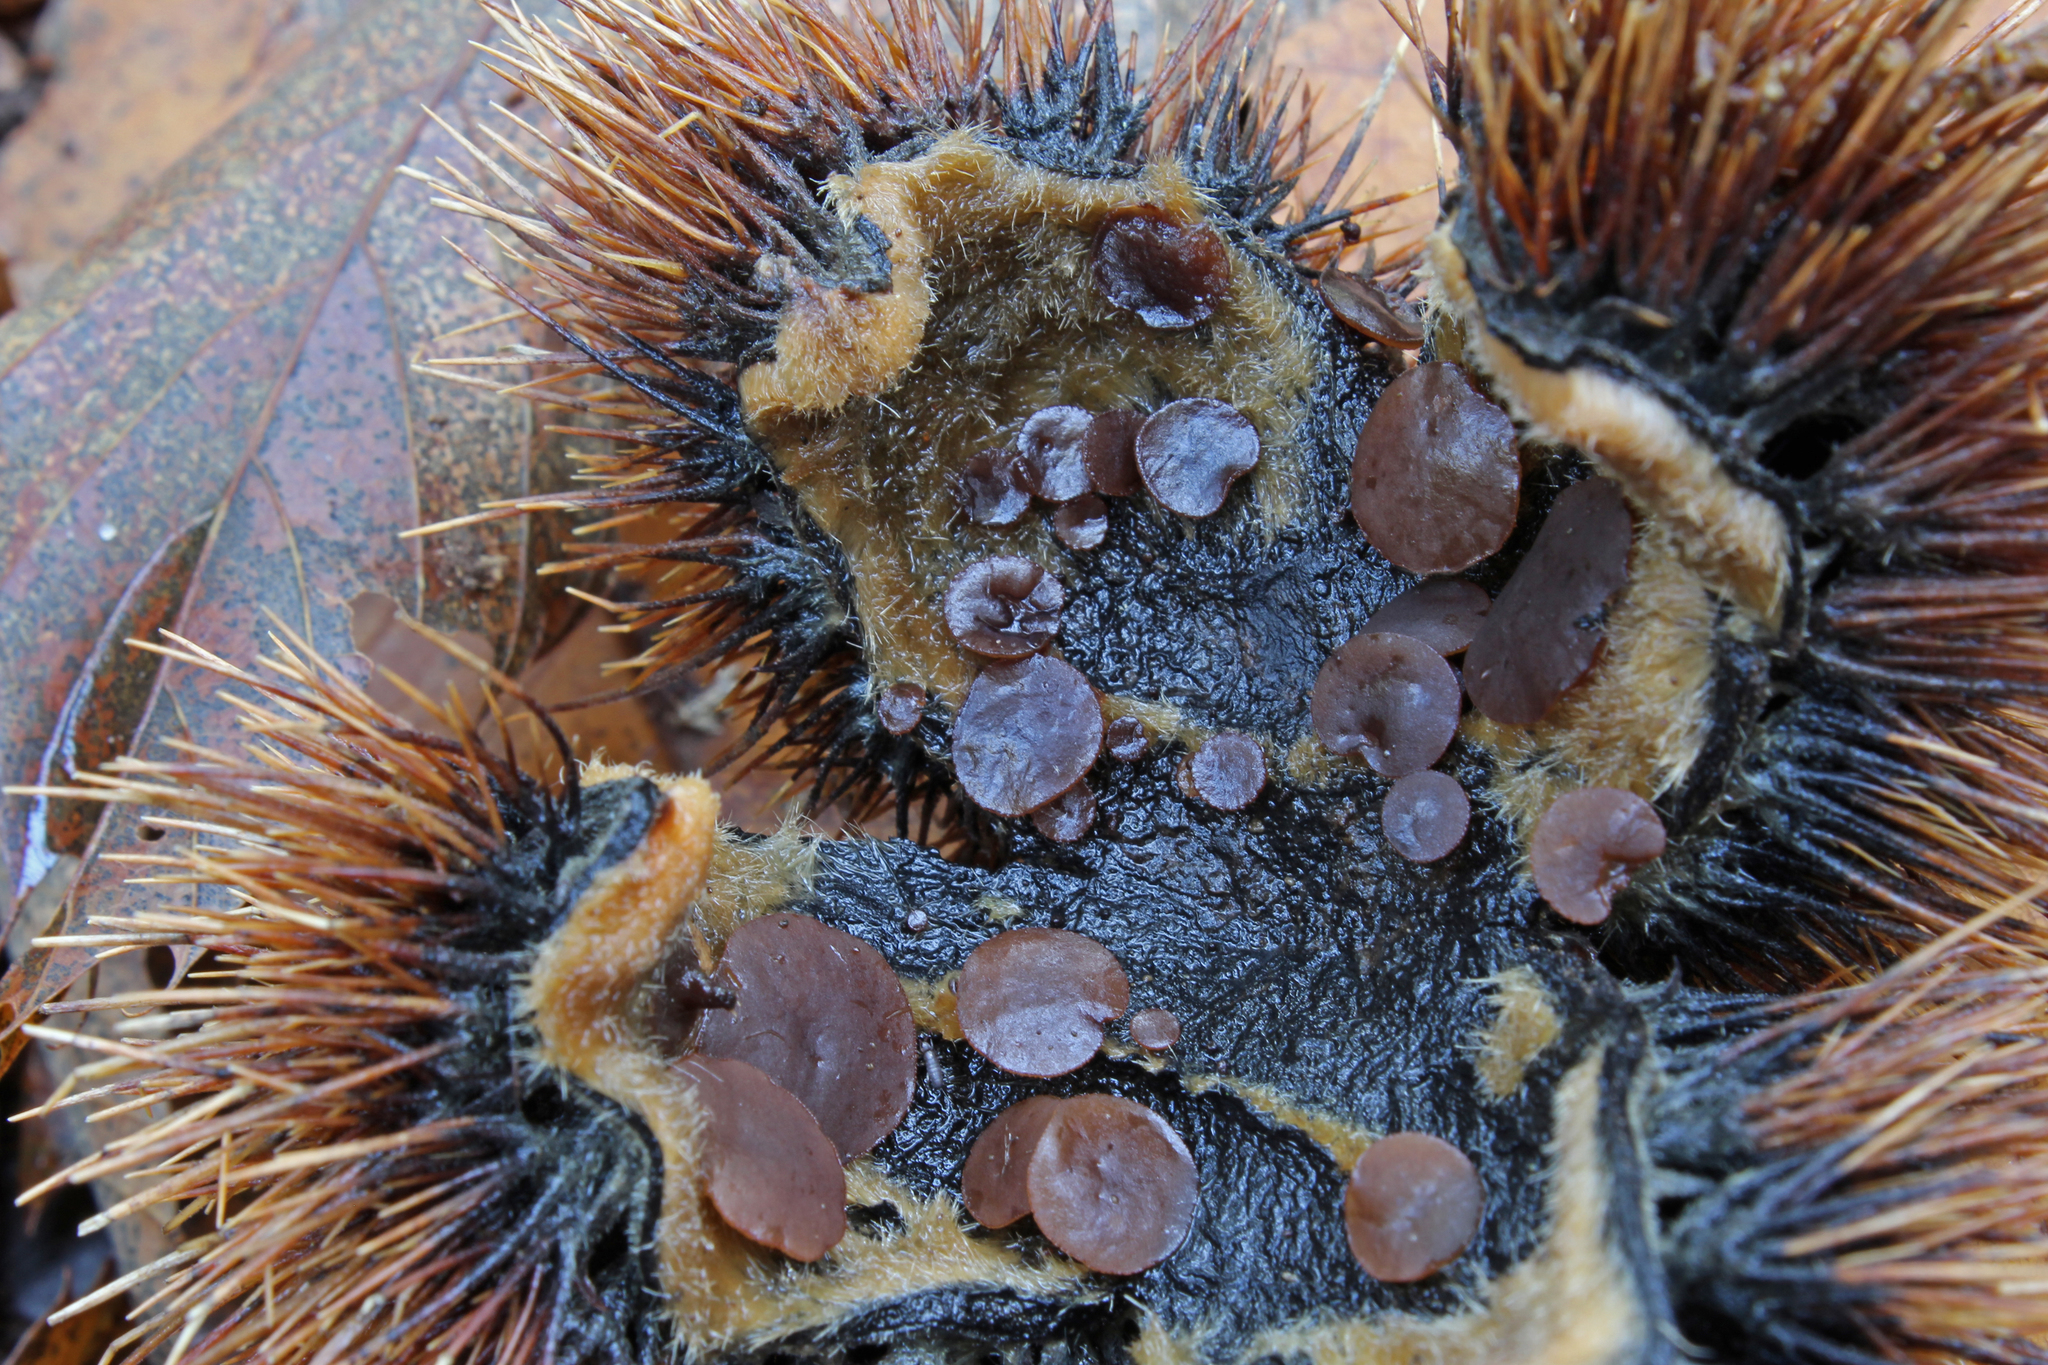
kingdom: Fungi
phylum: Ascomycota
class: Leotiomycetes
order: Helotiales
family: Rutstroemiaceae
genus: Lanzia
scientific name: Lanzia echinophila
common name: Hairy nuts disco
